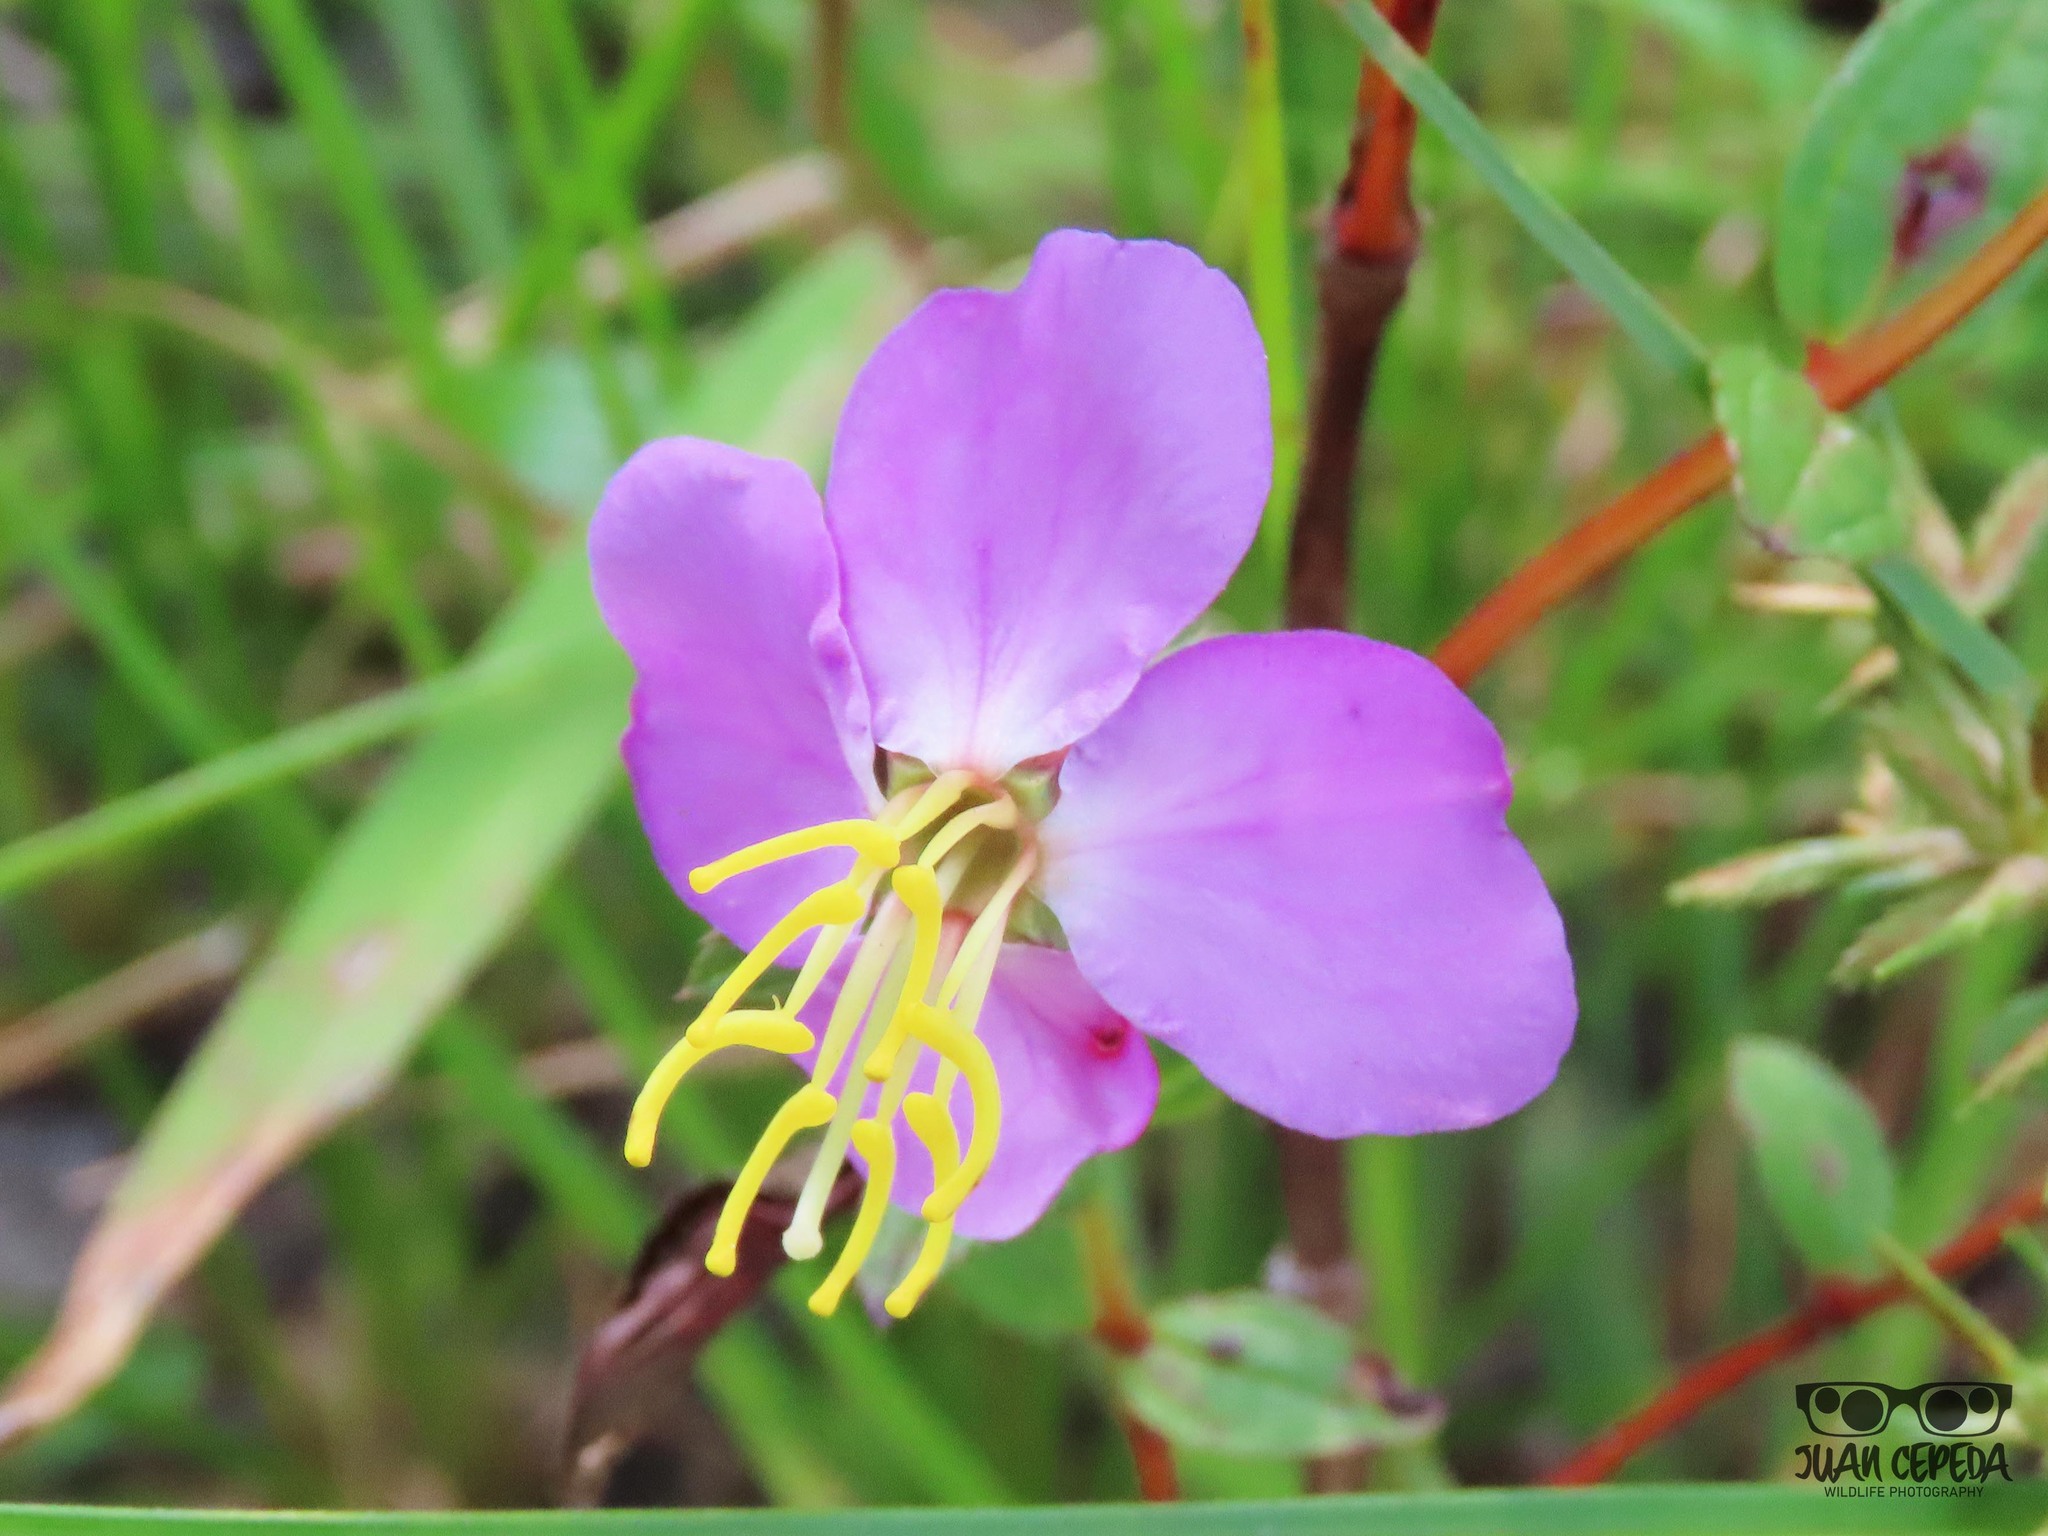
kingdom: Plantae
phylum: Tracheophyta
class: Magnoliopsida
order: Myrtales
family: Melastomataceae
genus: Rhexia
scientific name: Rhexia virginica
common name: Common meadow beauty
